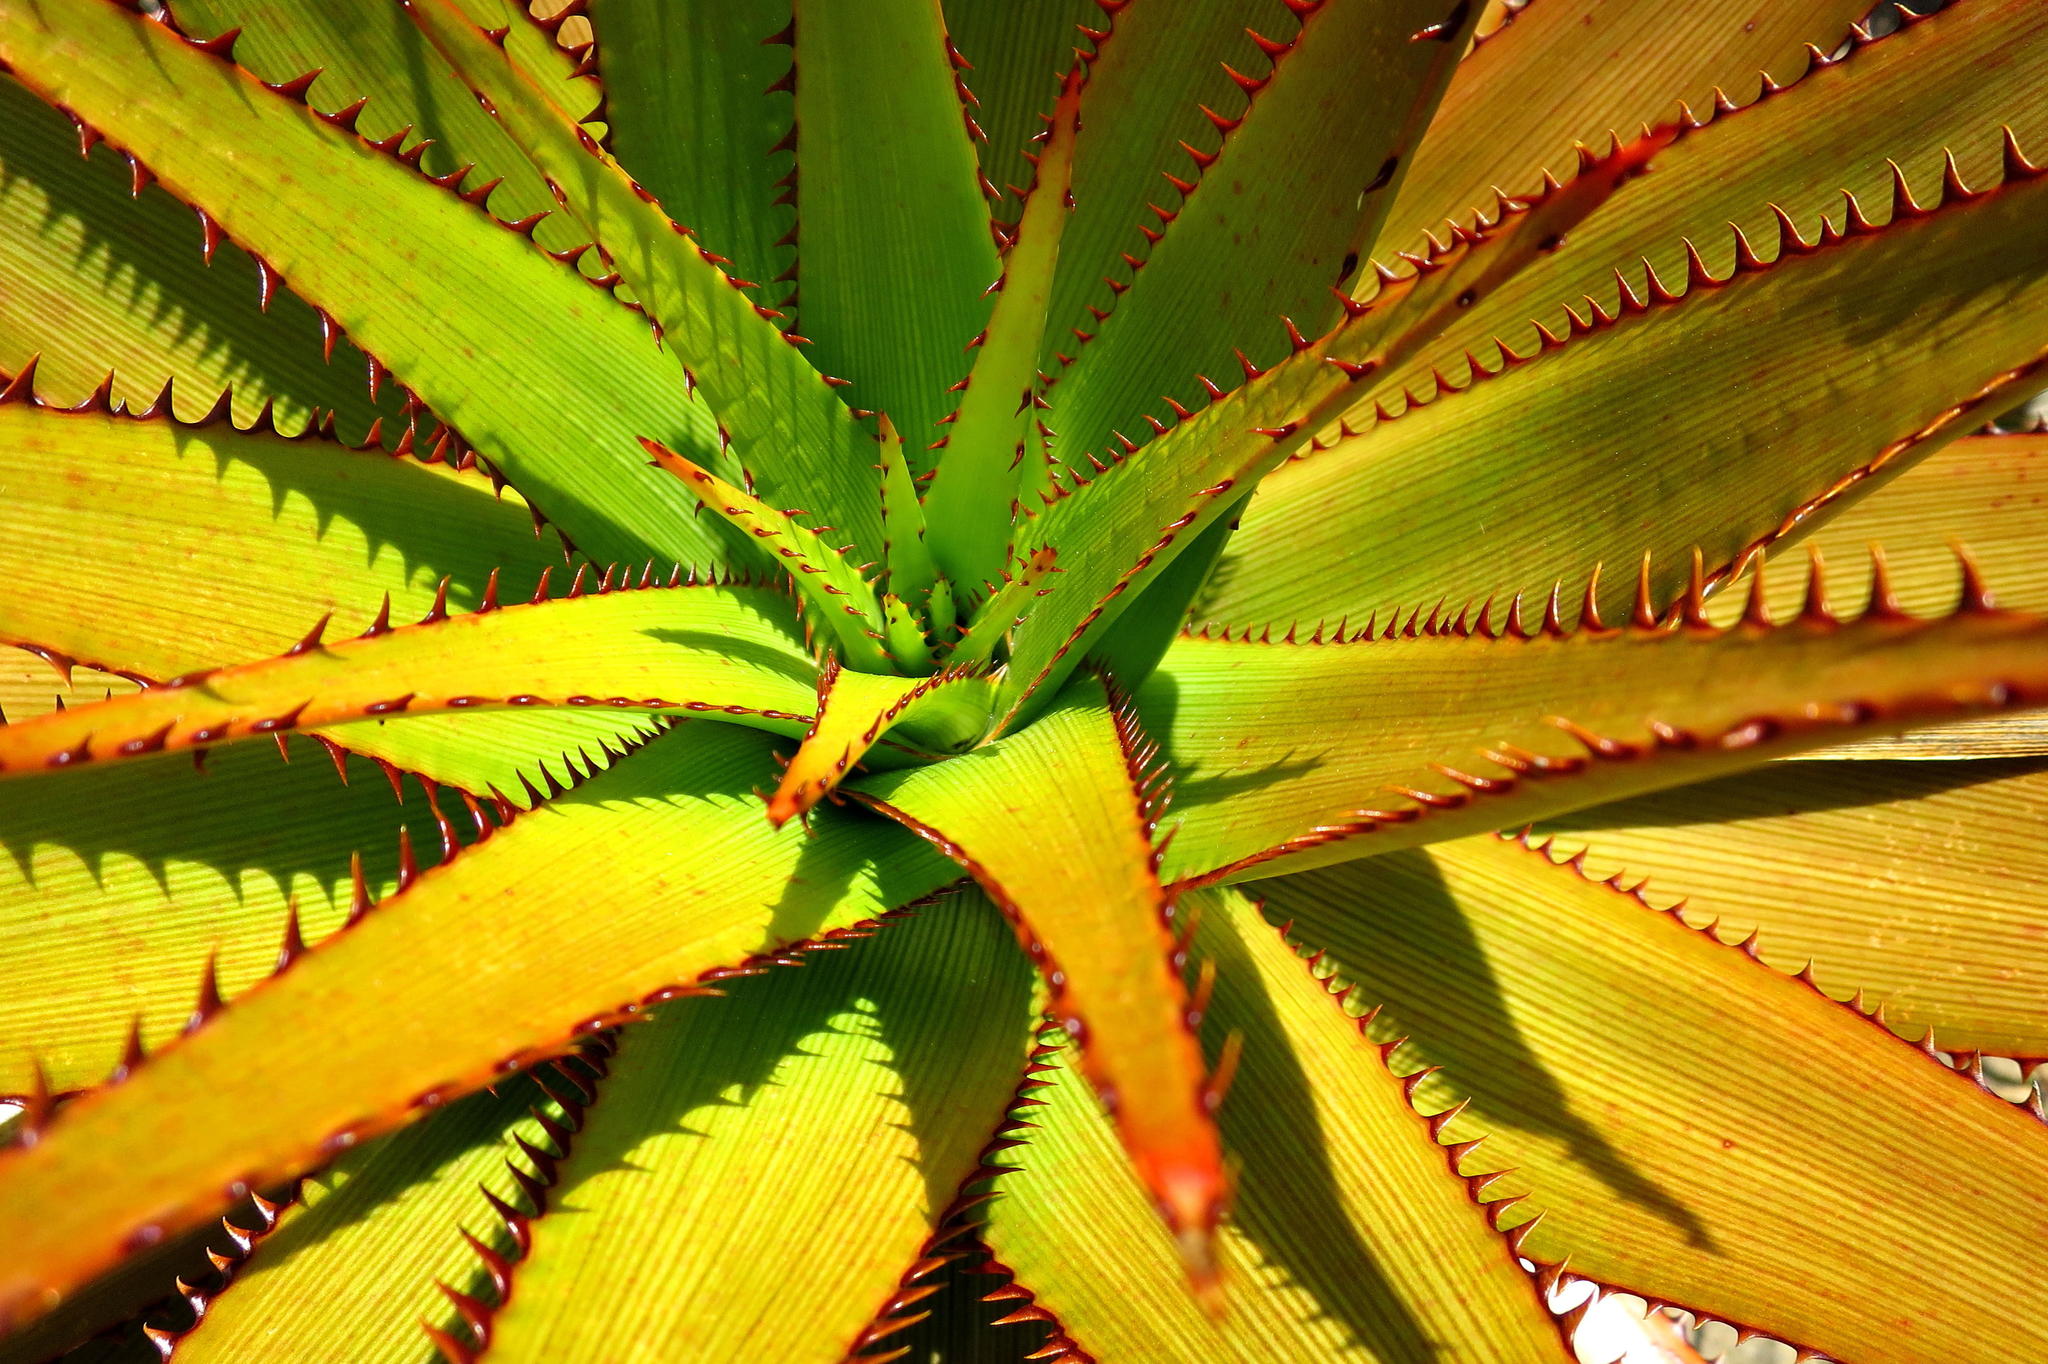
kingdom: Plantae
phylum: Tracheophyta
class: Liliopsida
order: Asparagales
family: Asphodelaceae
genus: Aloe
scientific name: Aloe lineata
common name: Lined red-spined aloe
